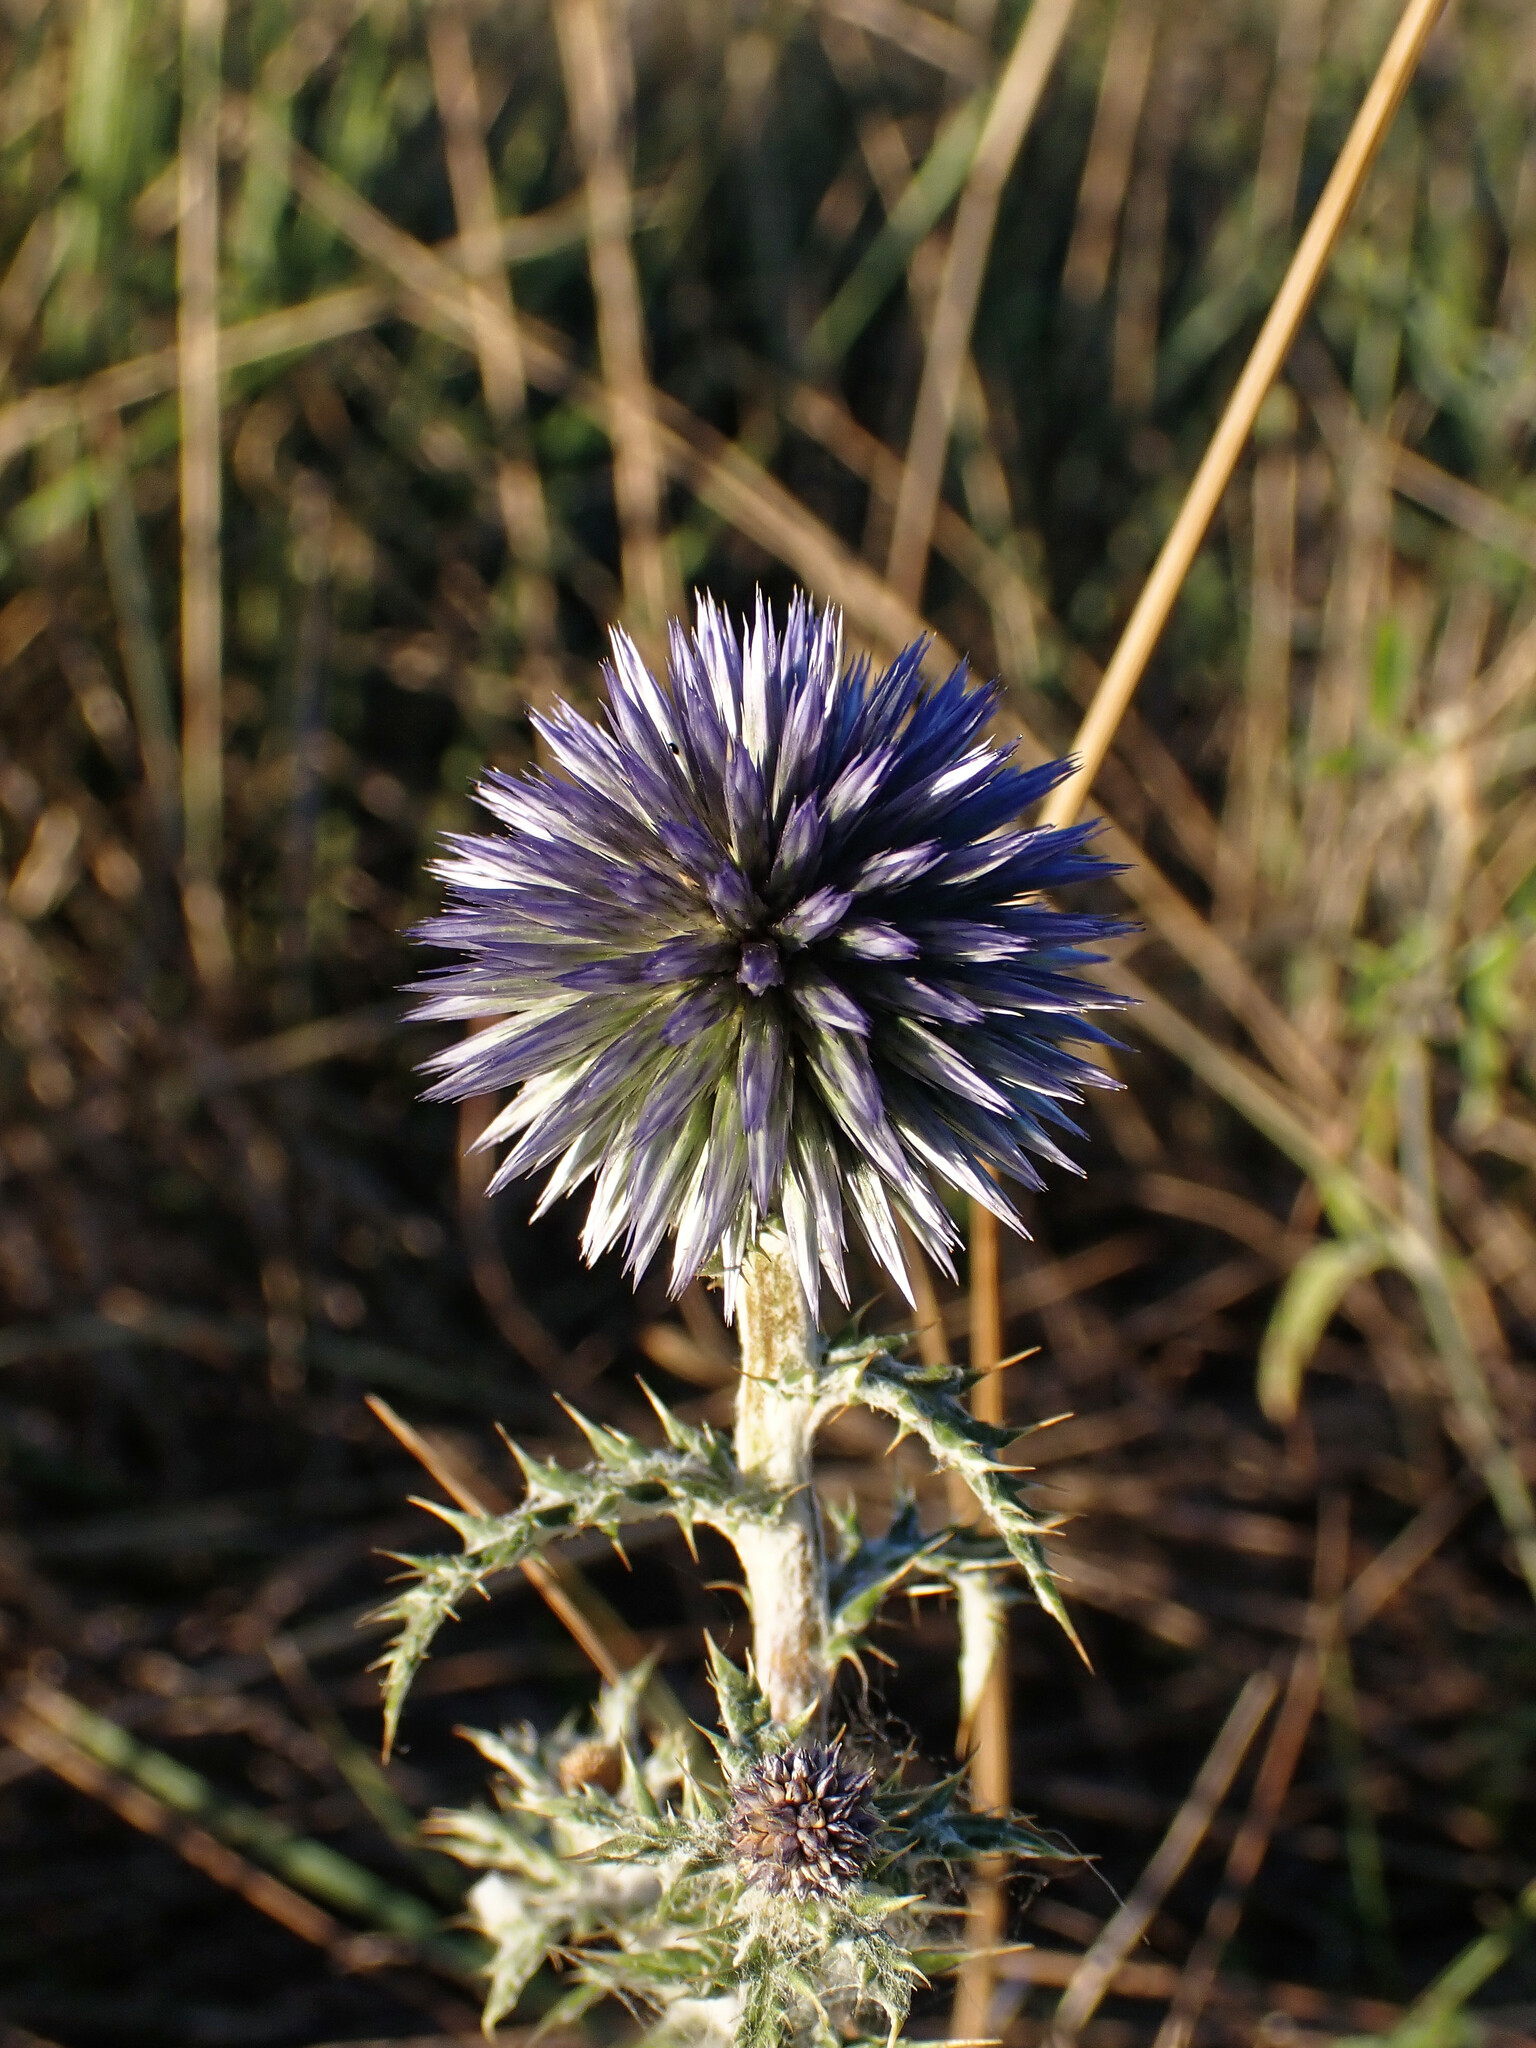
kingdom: Plantae
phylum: Tracheophyta
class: Magnoliopsida
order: Asterales
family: Asteraceae
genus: Echinops
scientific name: Echinops ritro
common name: Globe thistle
